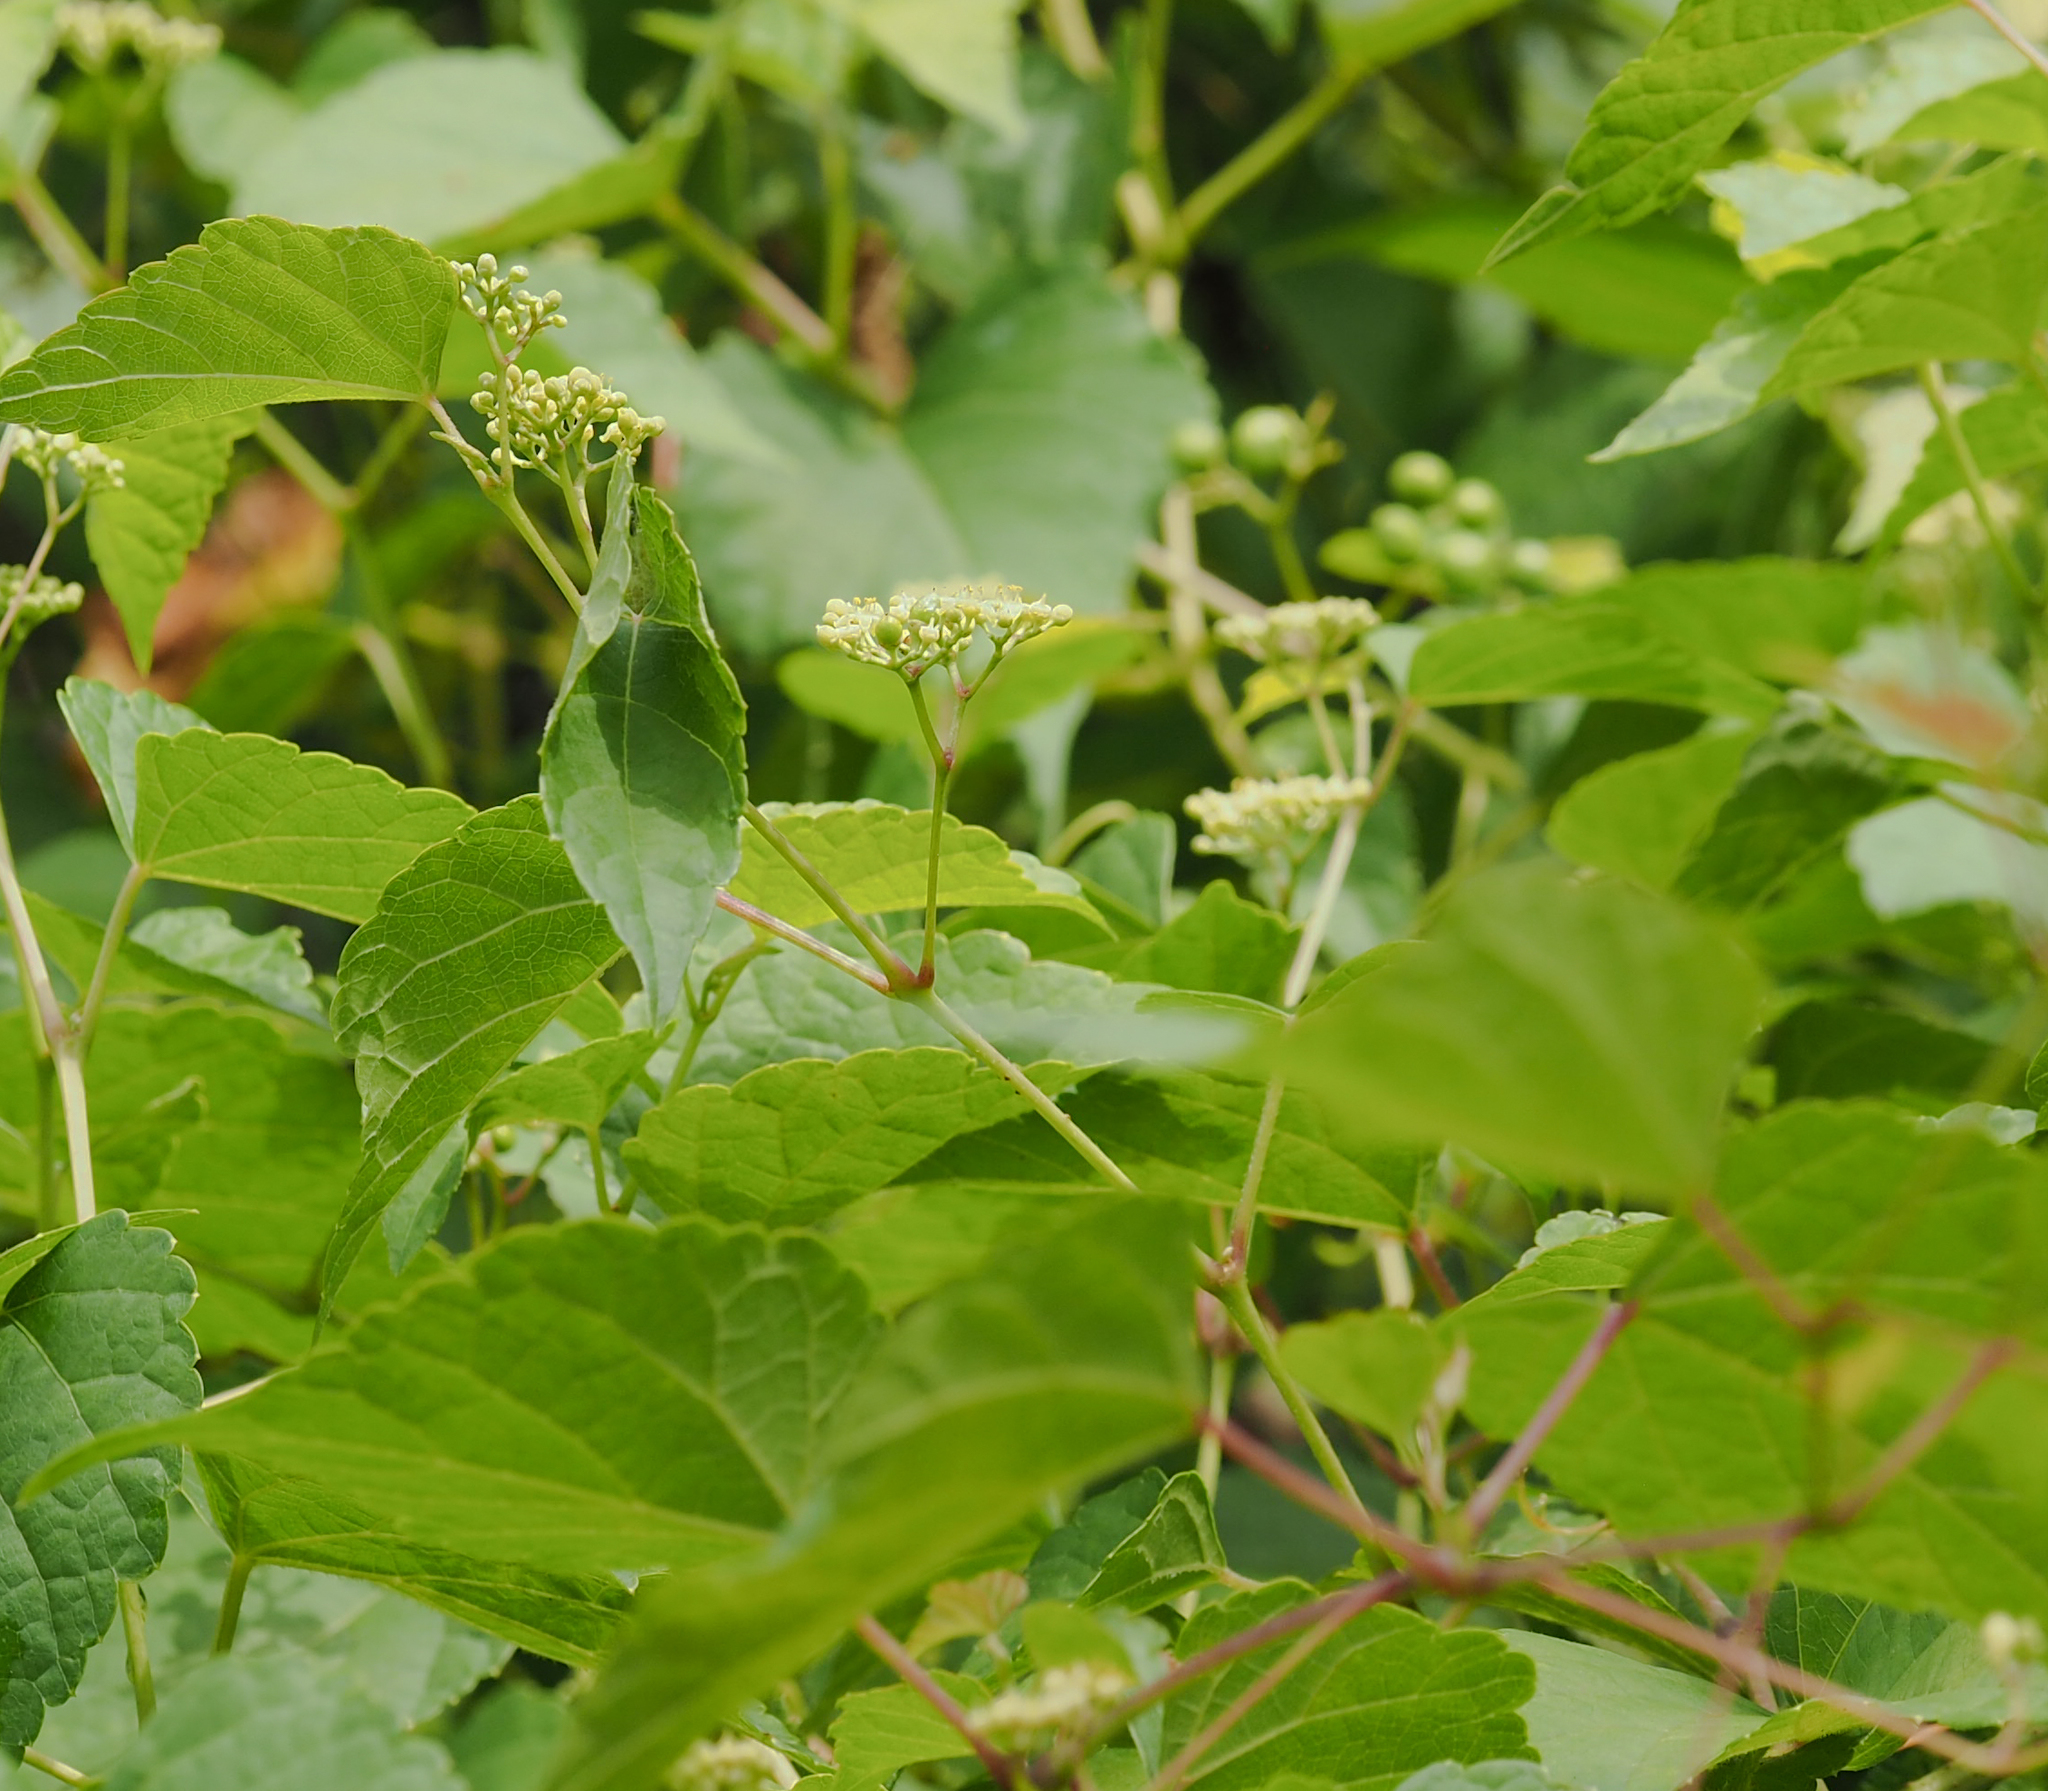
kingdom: Plantae
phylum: Tracheophyta
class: Magnoliopsida
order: Vitales
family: Vitaceae
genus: Ampelopsis
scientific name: Ampelopsis glandulosa
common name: Amur peppervine
